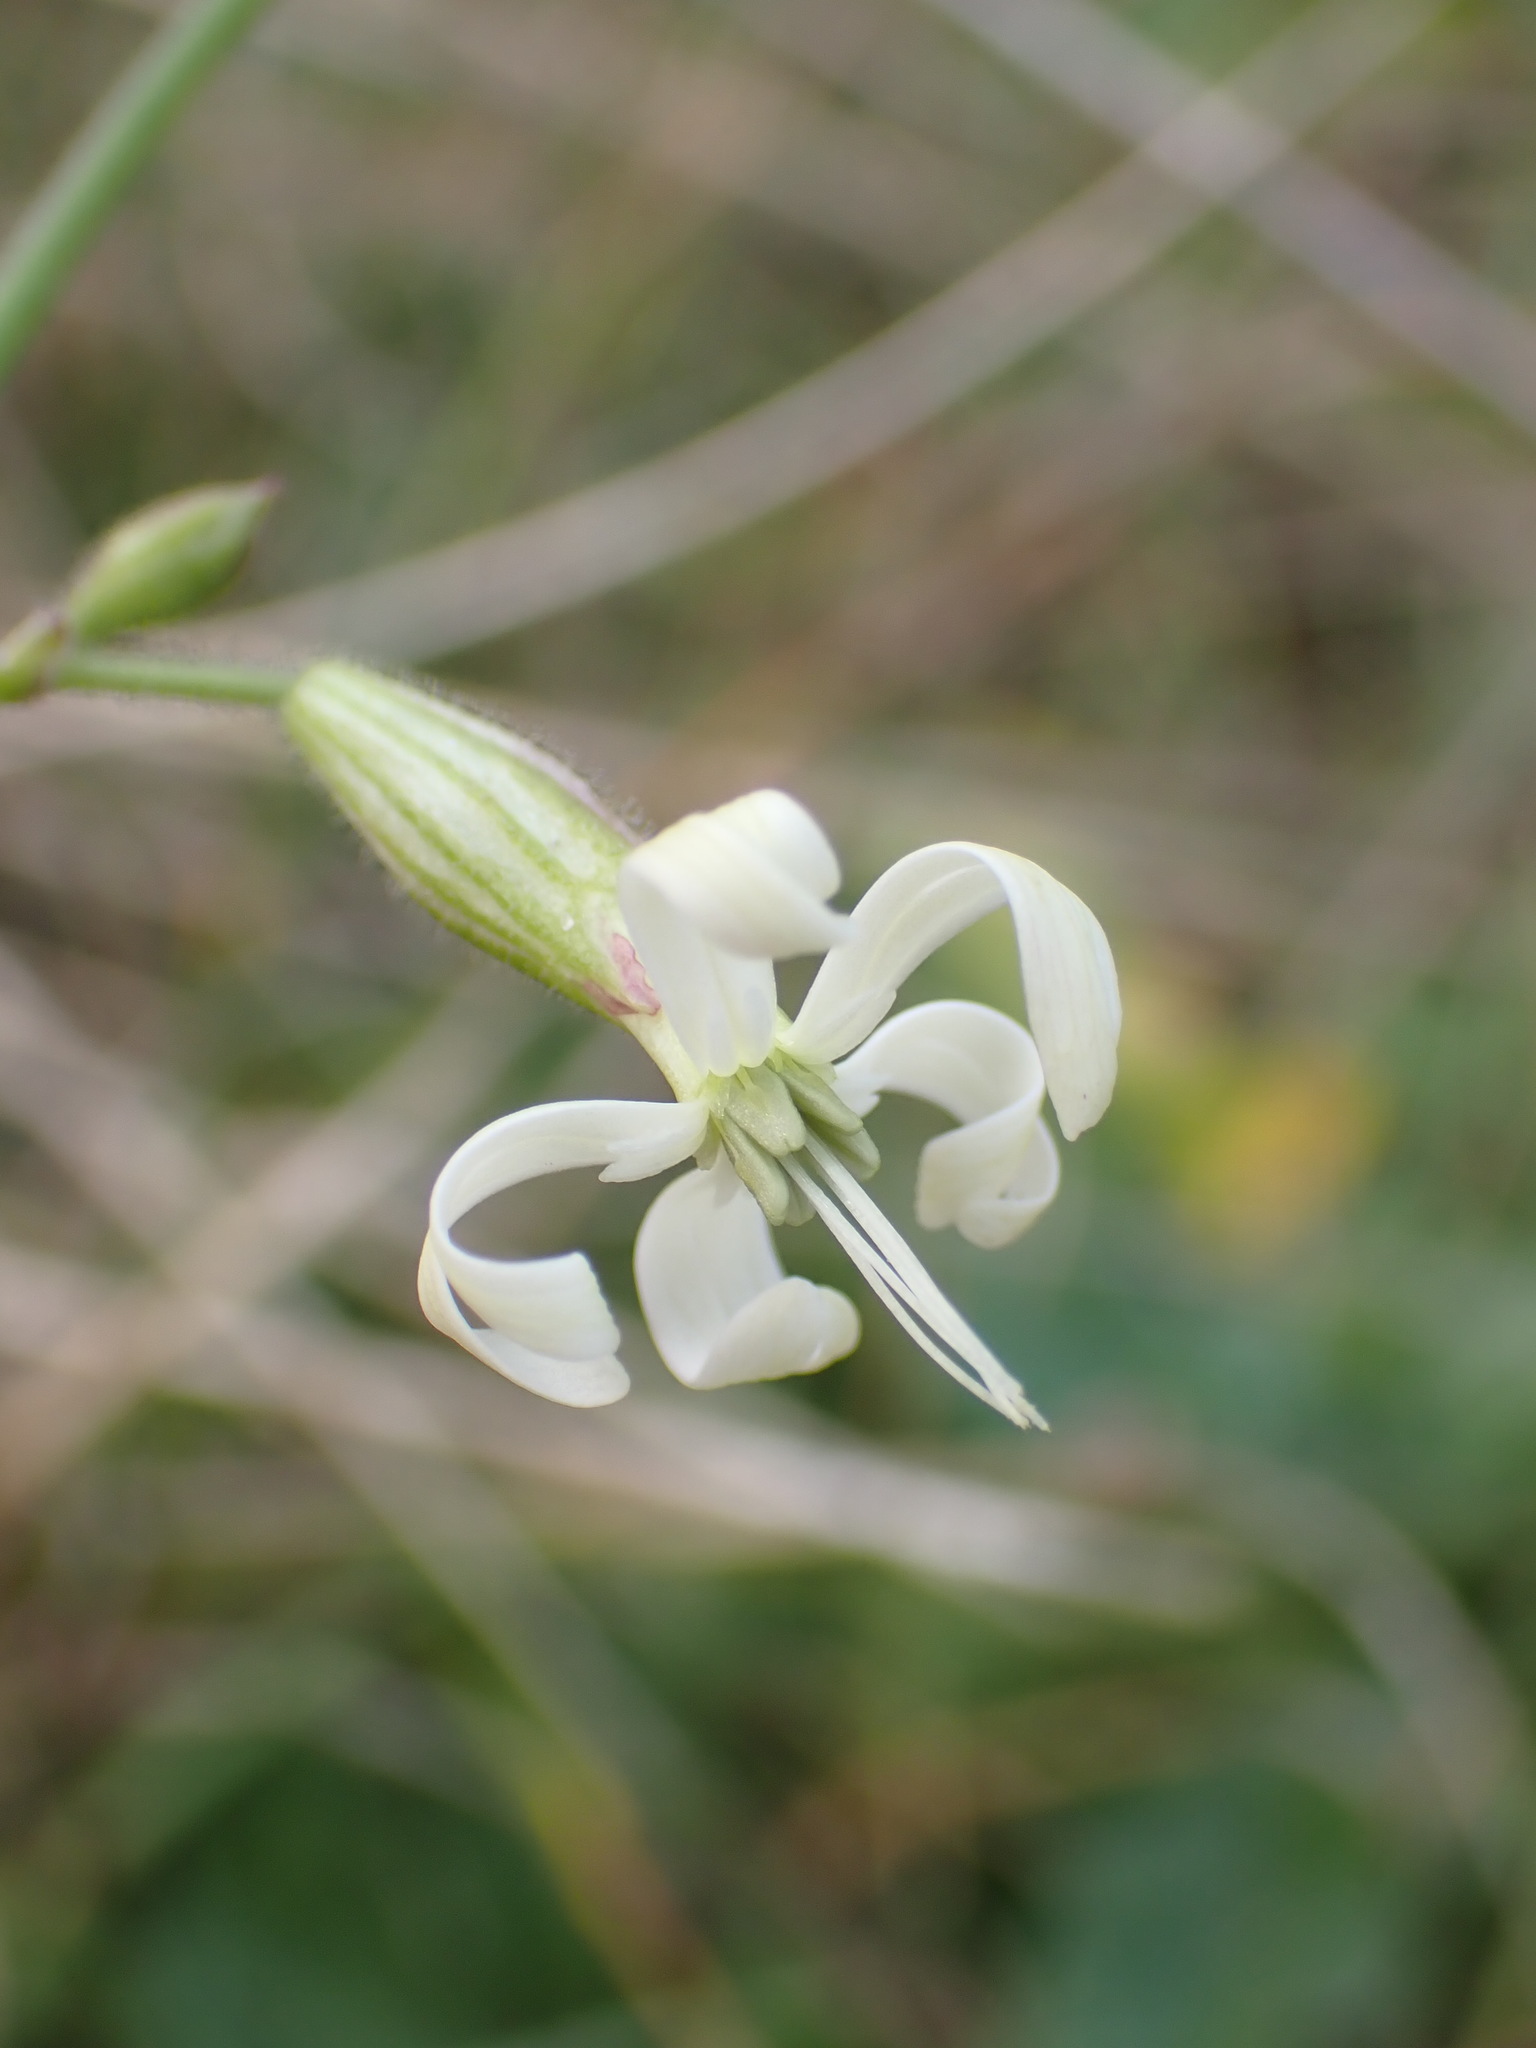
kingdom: Plantae
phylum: Tracheophyta
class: Magnoliopsida
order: Caryophyllales
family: Caryophyllaceae
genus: Silene
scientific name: Silene nutans
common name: Nottingham catchfly
